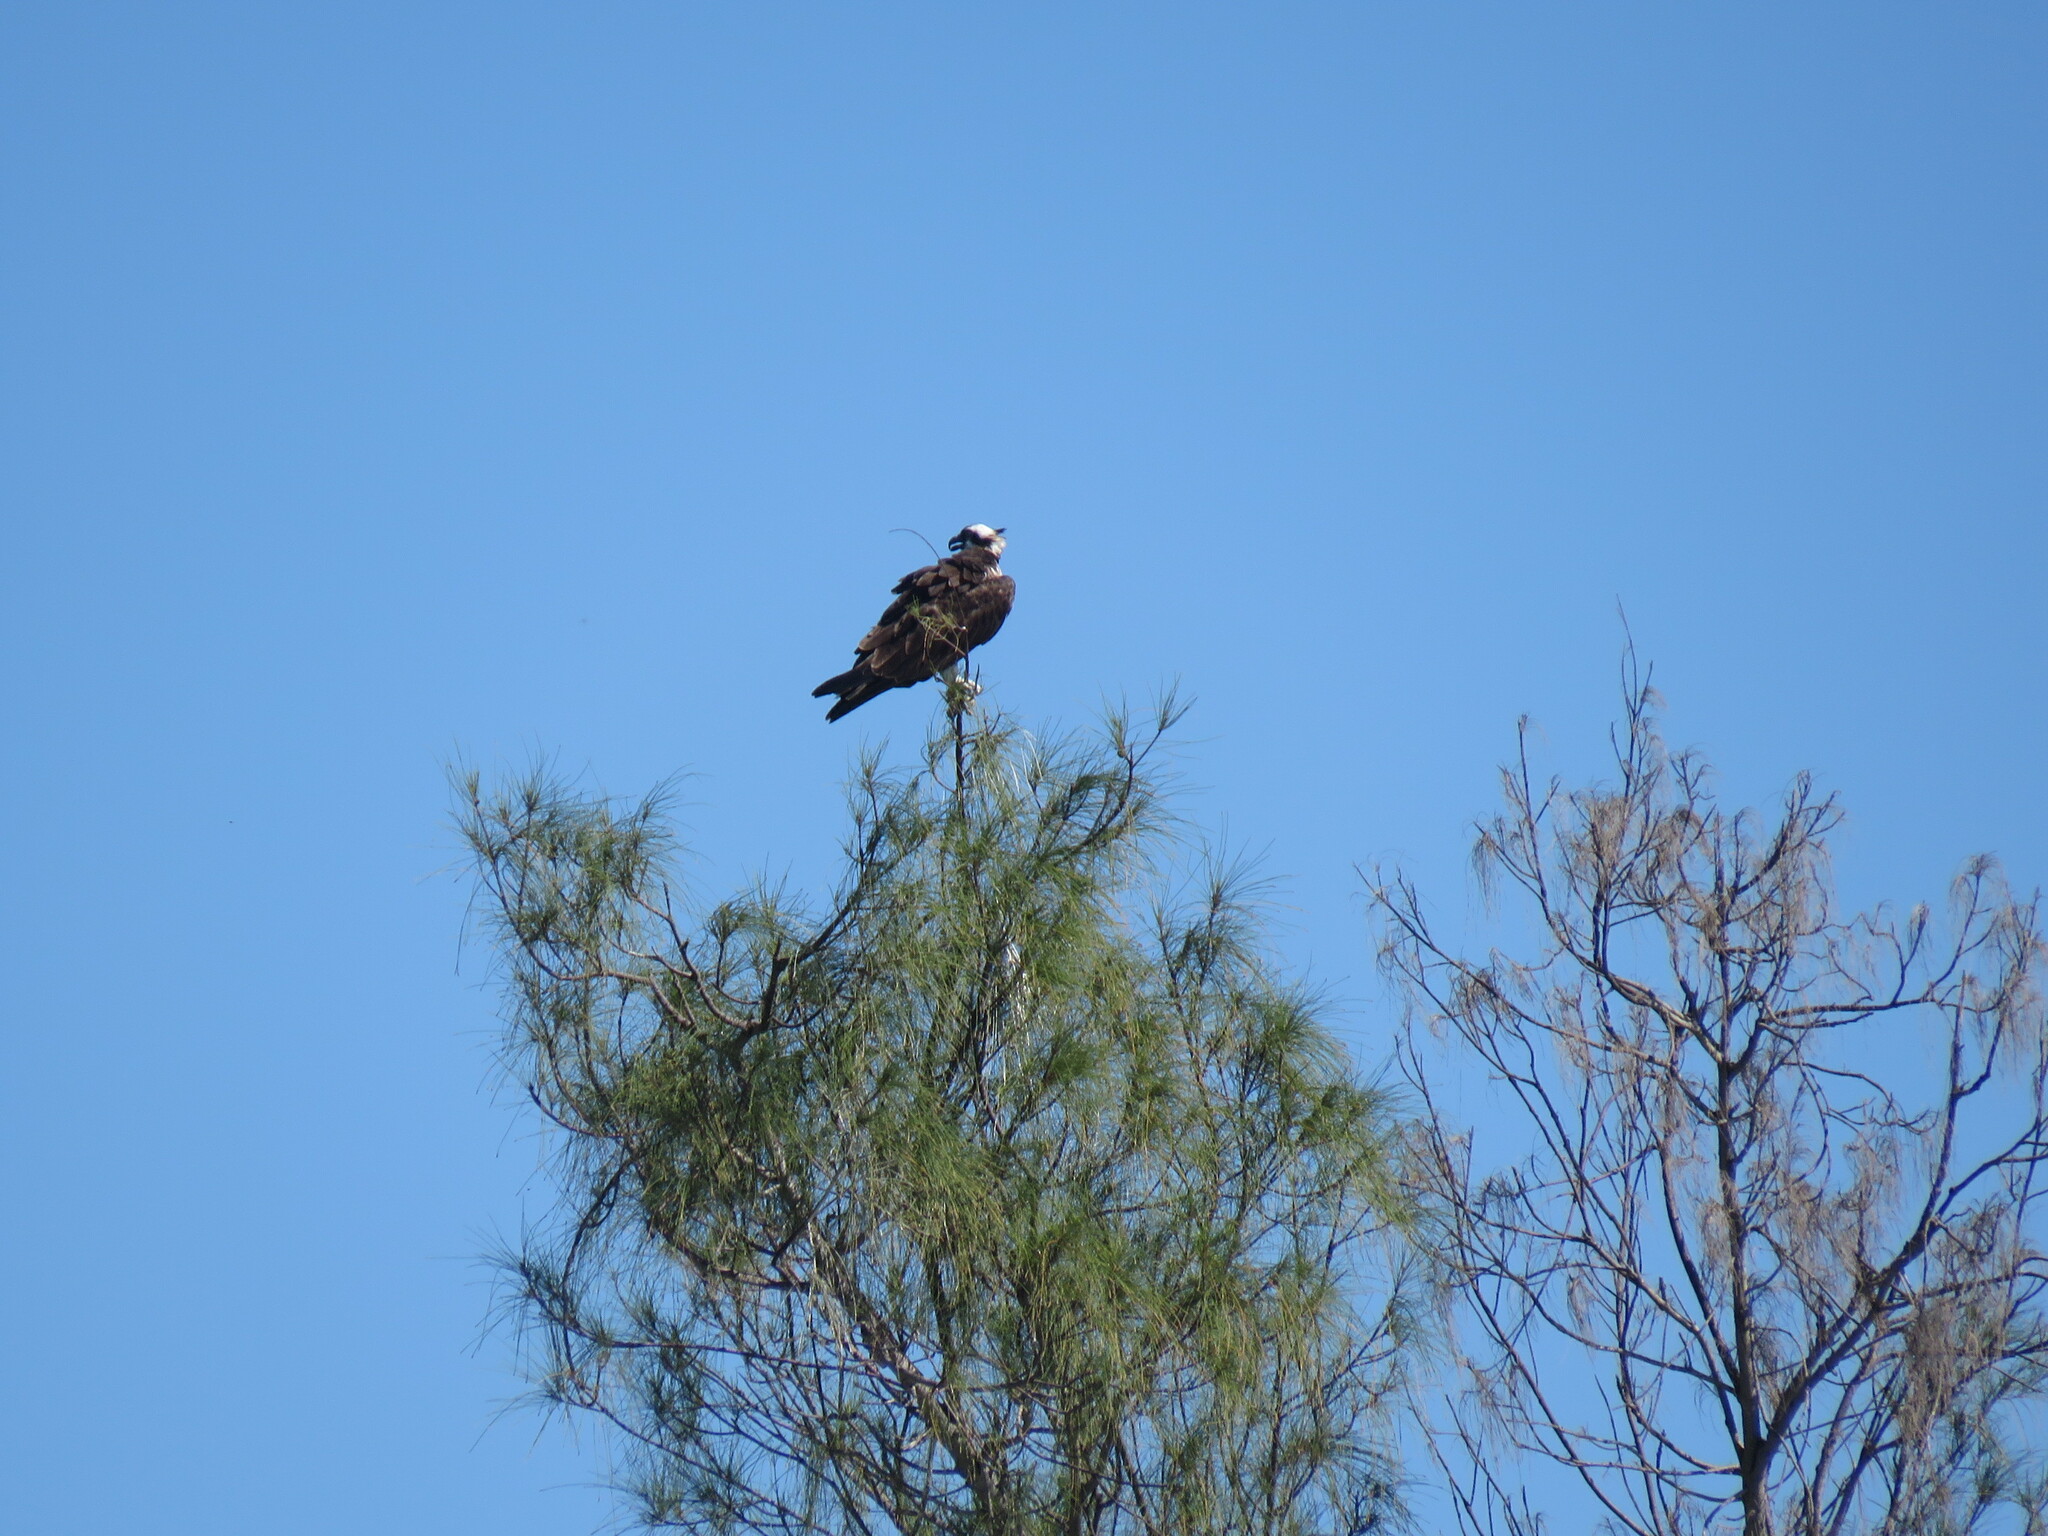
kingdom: Animalia
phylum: Chordata
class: Aves
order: Accipitriformes
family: Pandionidae
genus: Pandion
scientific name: Pandion haliaetus
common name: Osprey
